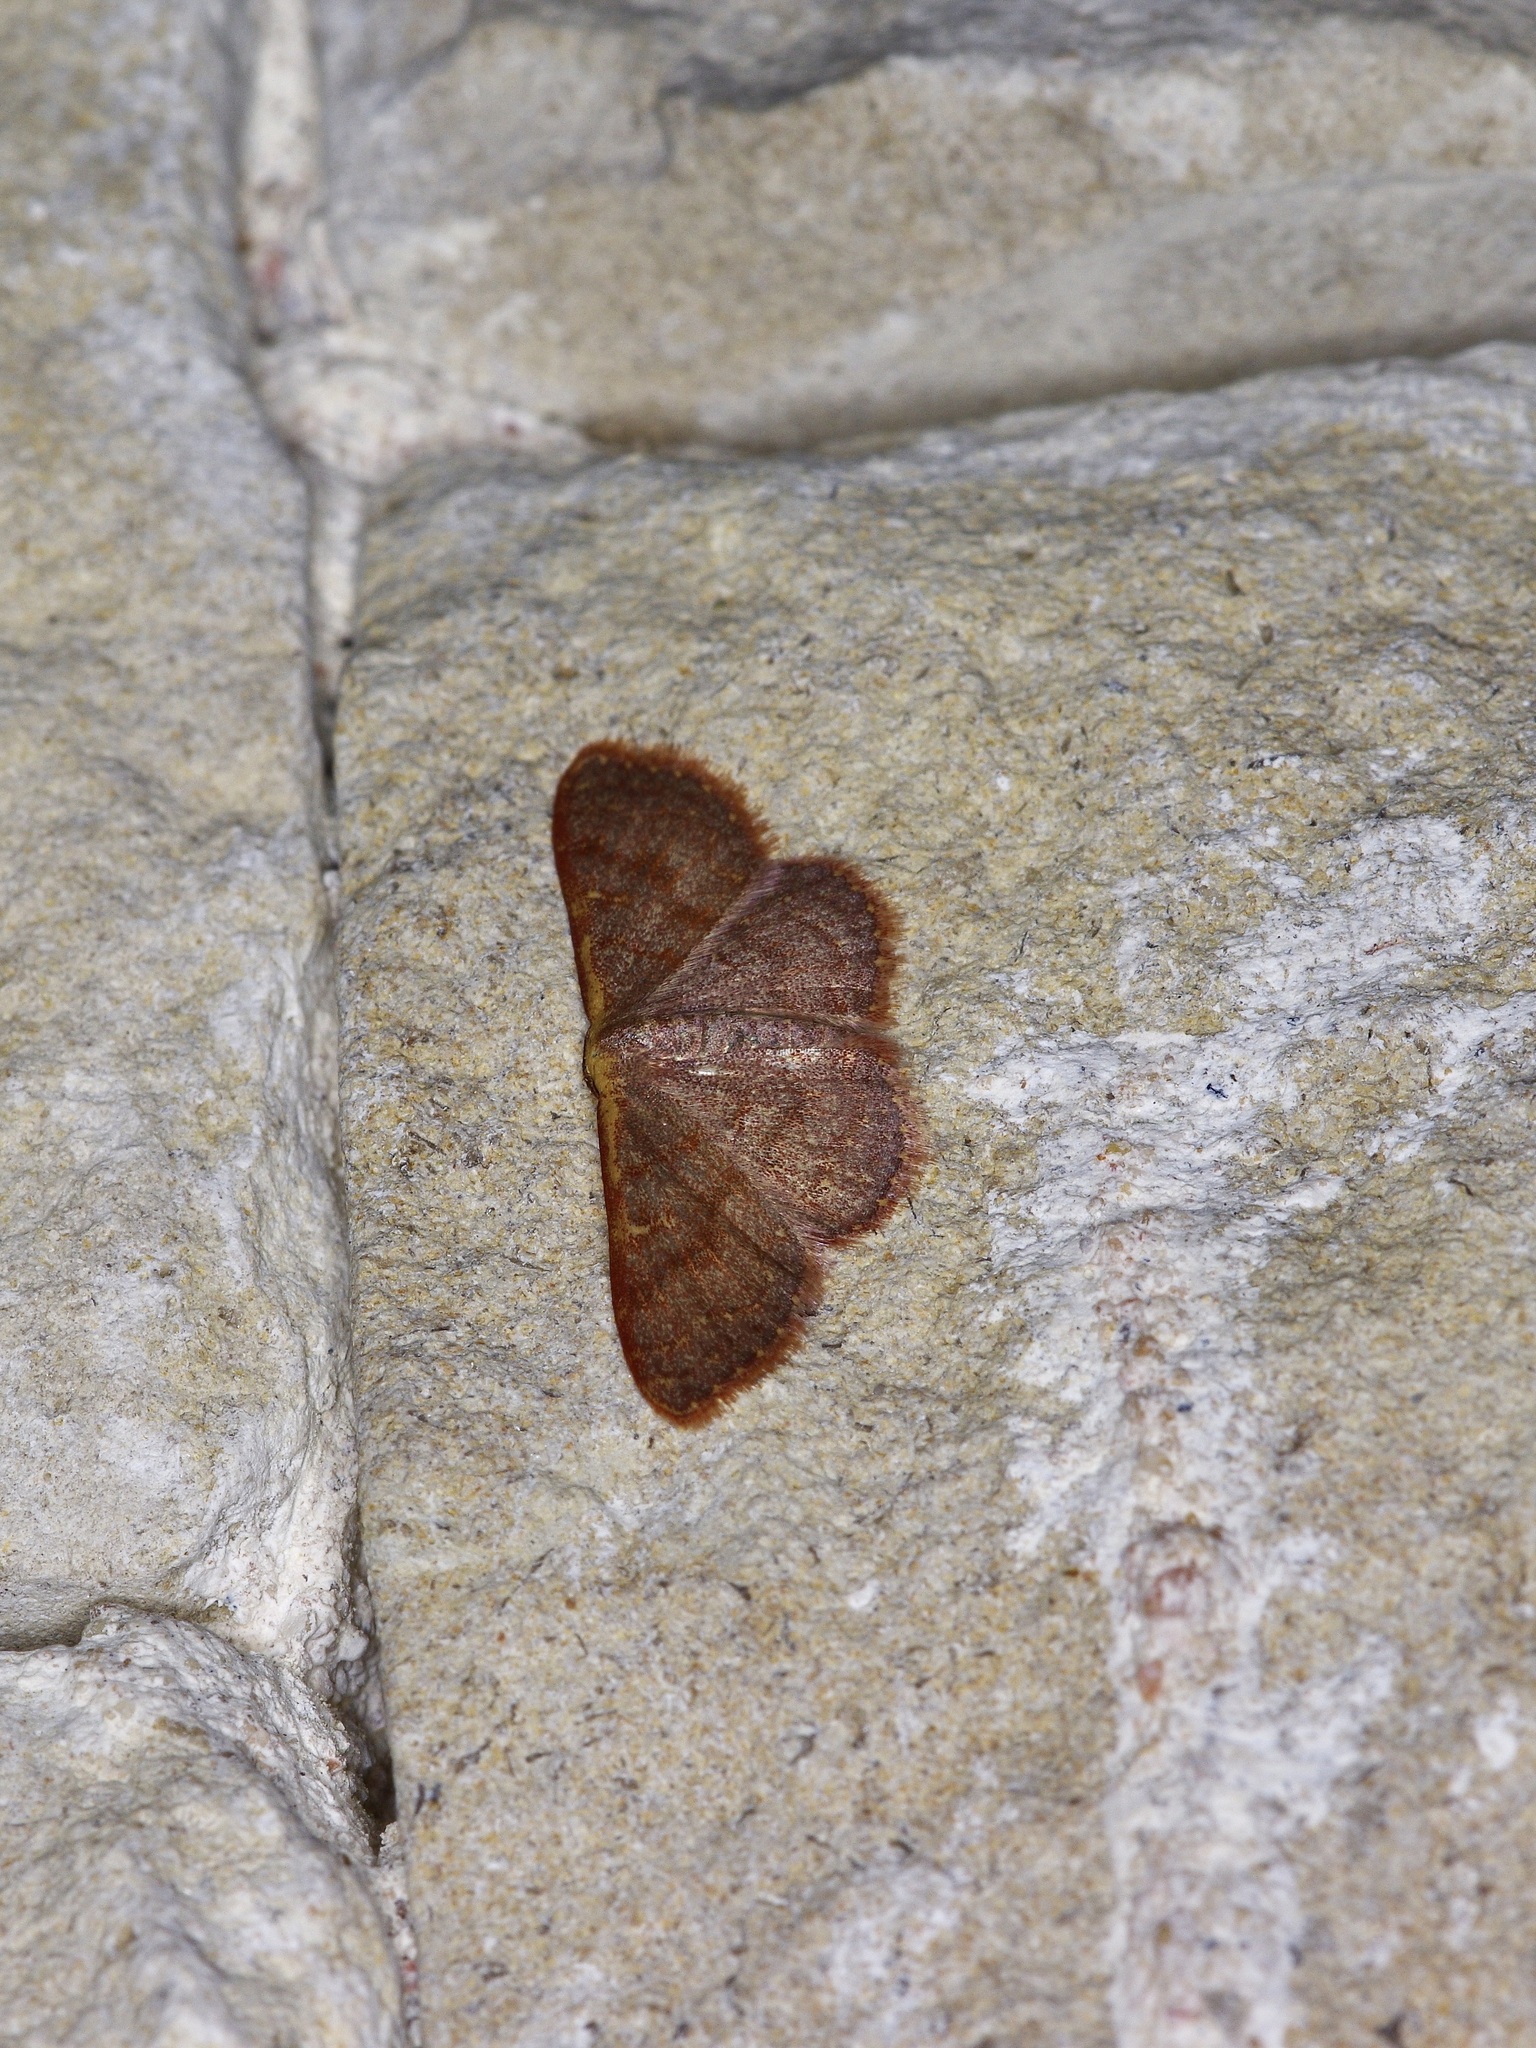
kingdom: Animalia
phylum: Arthropoda
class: Insecta
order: Lepidoptera
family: Geometridae
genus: Leptostales
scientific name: Leptostales pannaria
